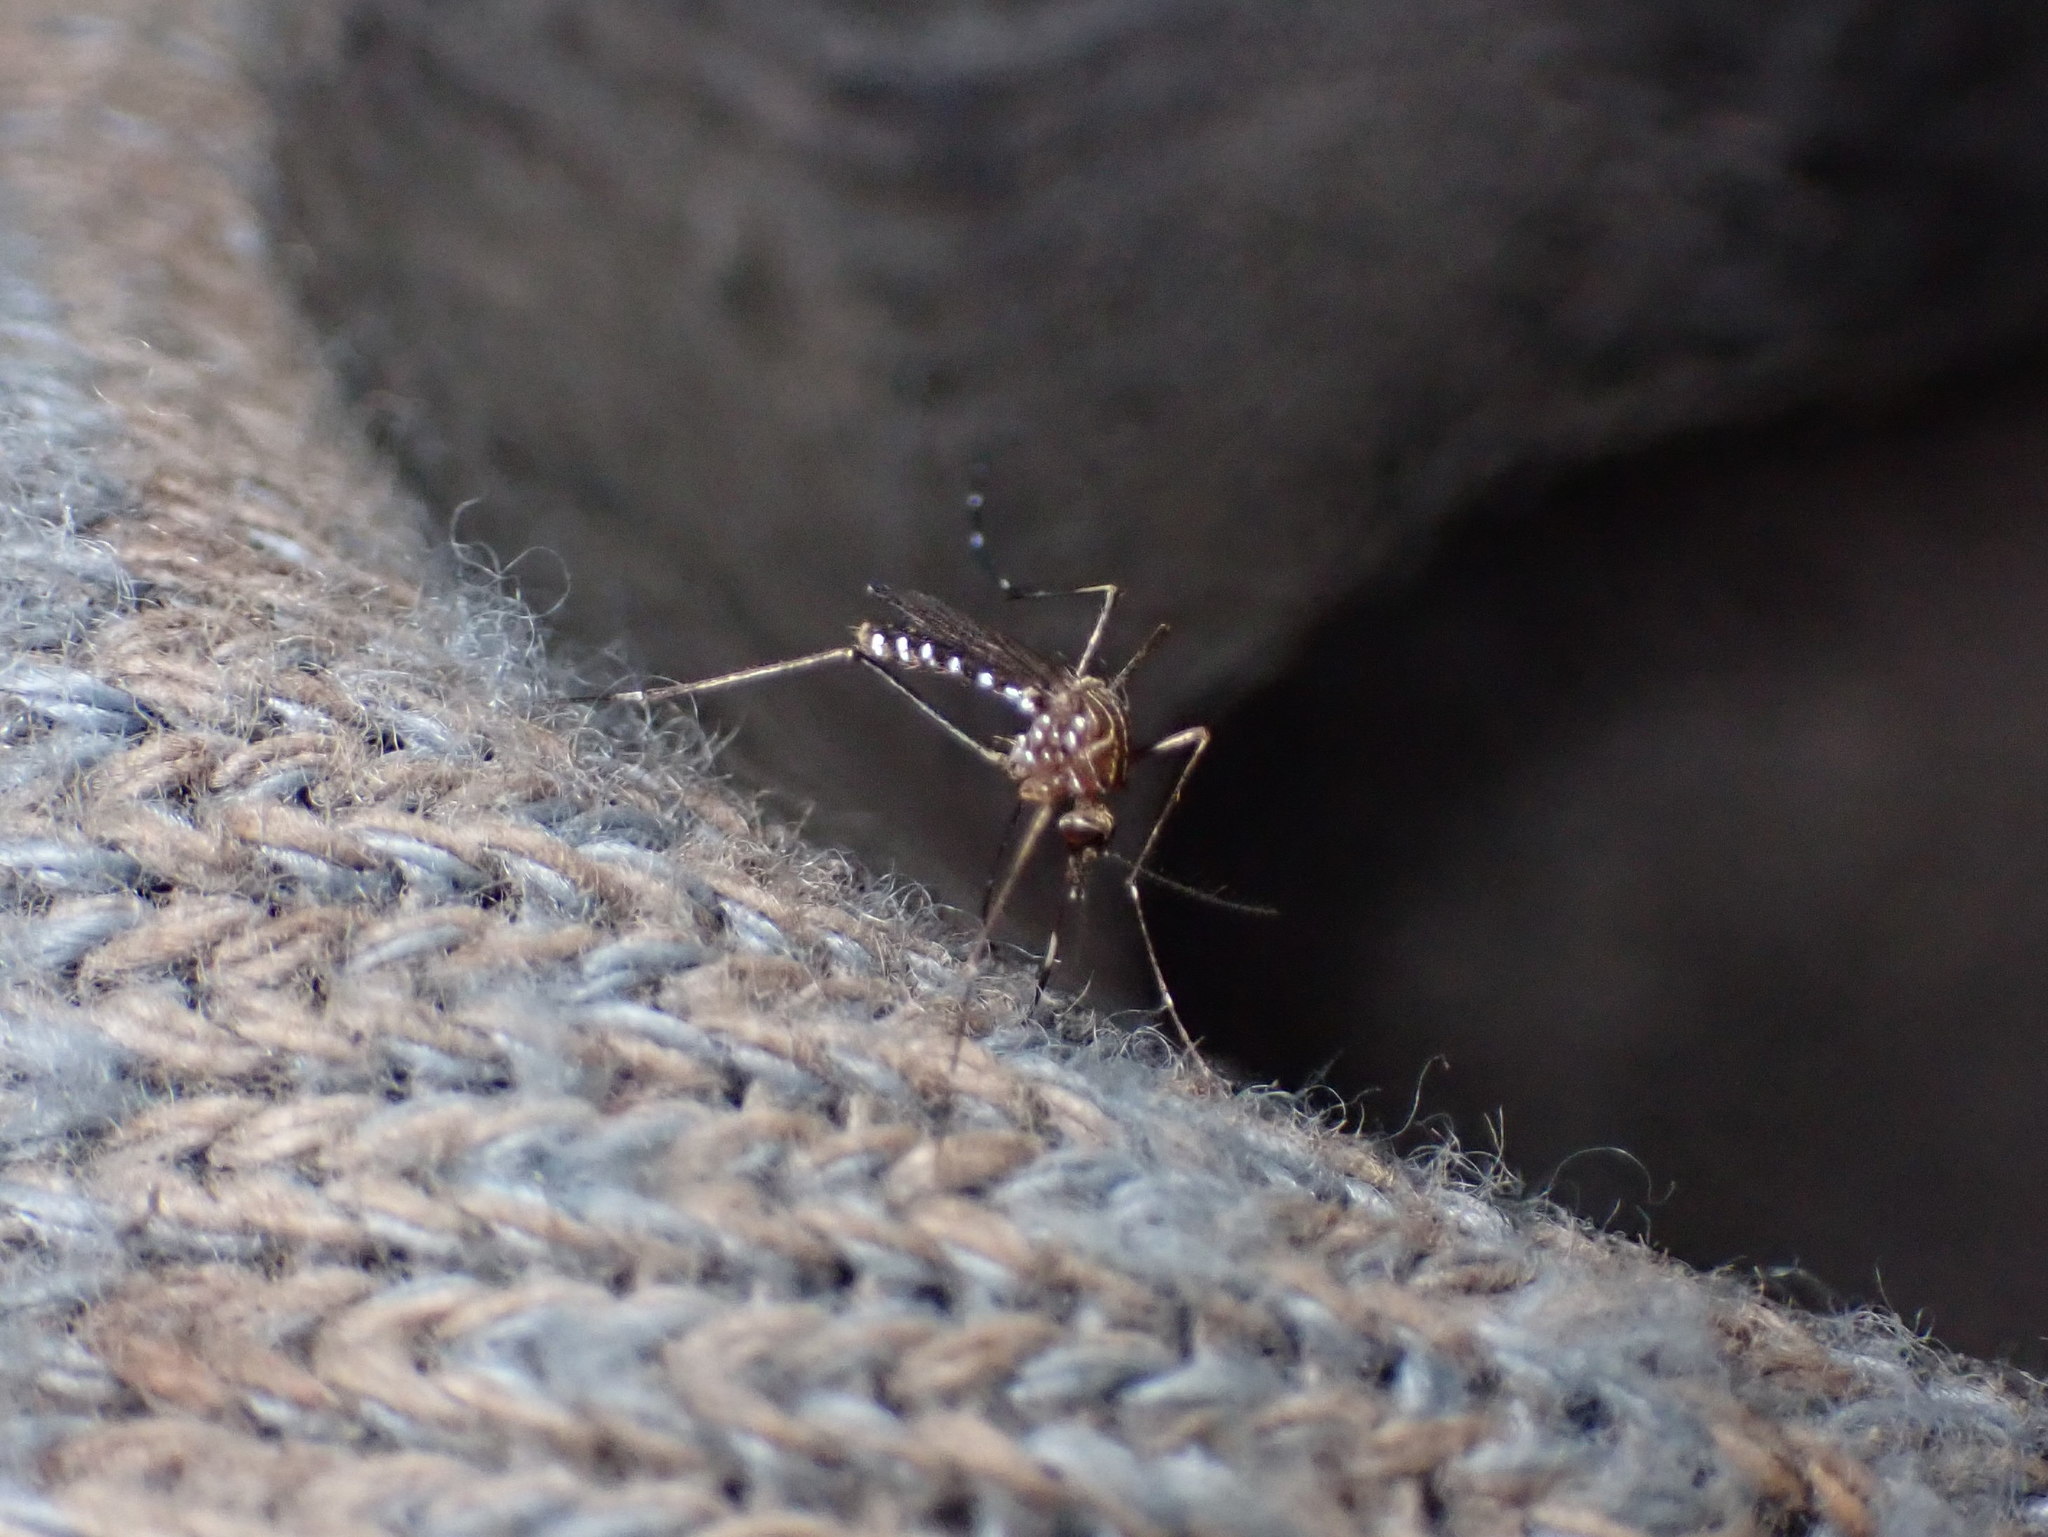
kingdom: Animalia
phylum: Arthropoda
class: Insecta
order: Diptera
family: Culicidae
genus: Aedes
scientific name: Aedes notoscriptus
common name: Australian backyard mosquito
